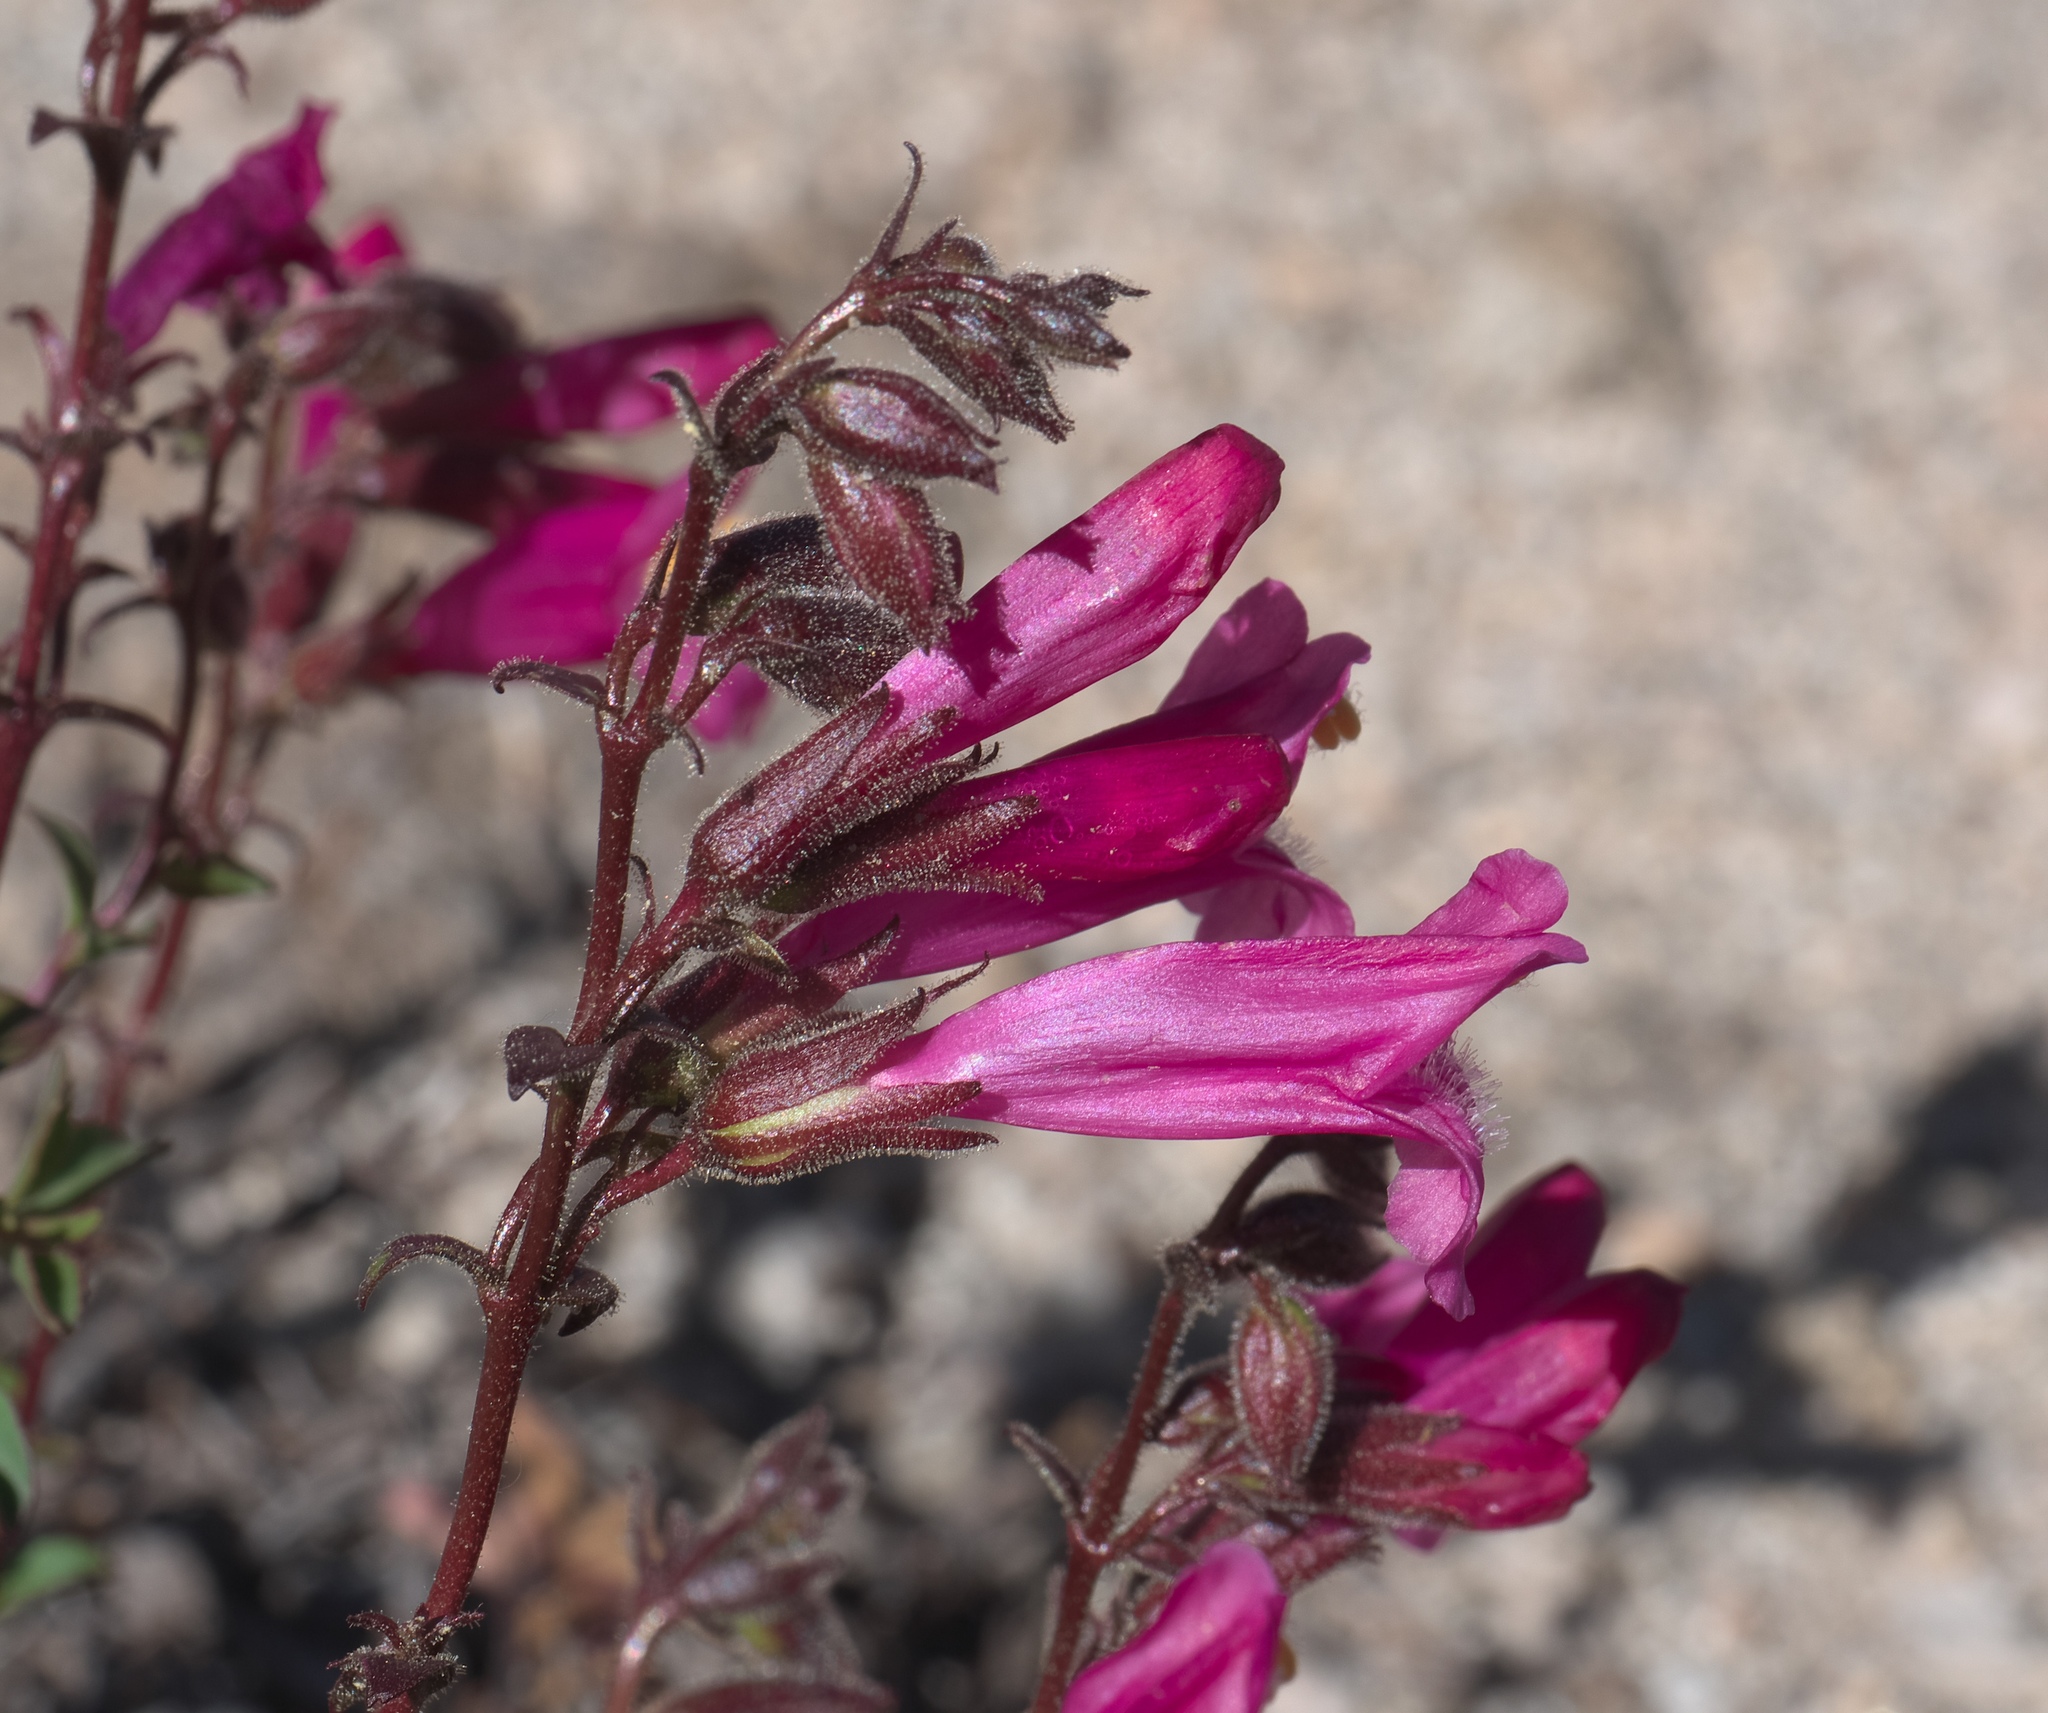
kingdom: Plantae
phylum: Tracheophyta
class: Magnoliopsida
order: Lamiales
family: Plantaginaceae
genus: Penstemon
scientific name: Penstemon newberryi
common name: Mountain-pride
